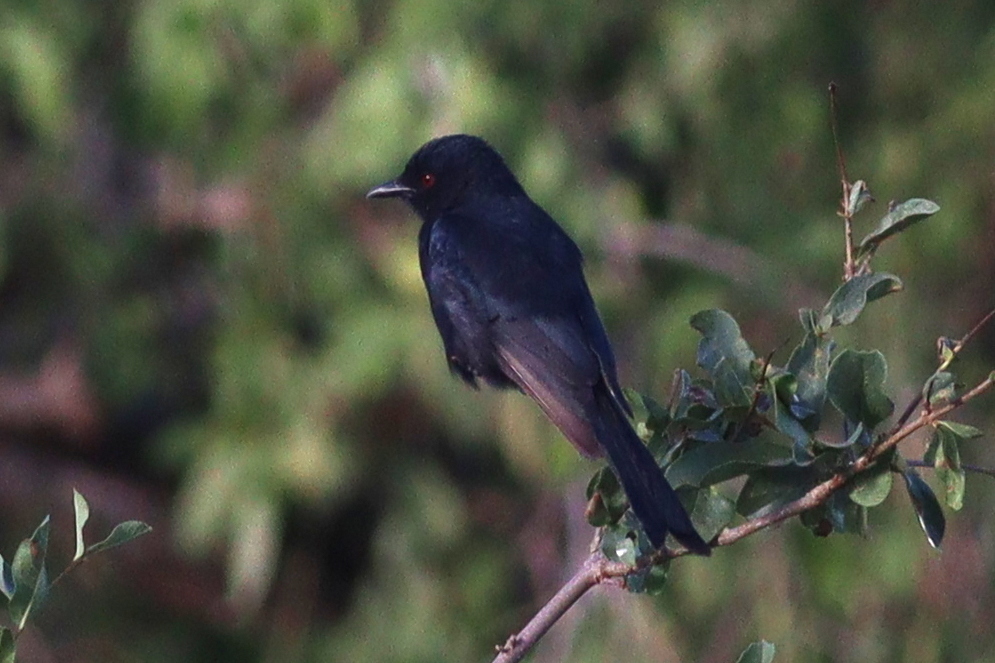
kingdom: Animalia
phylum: Chordata
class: Aves
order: Passeriformes
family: Dicruridae
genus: Dicrurus
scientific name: Dicrurus adsimilis
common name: Fork-tailed drongo
